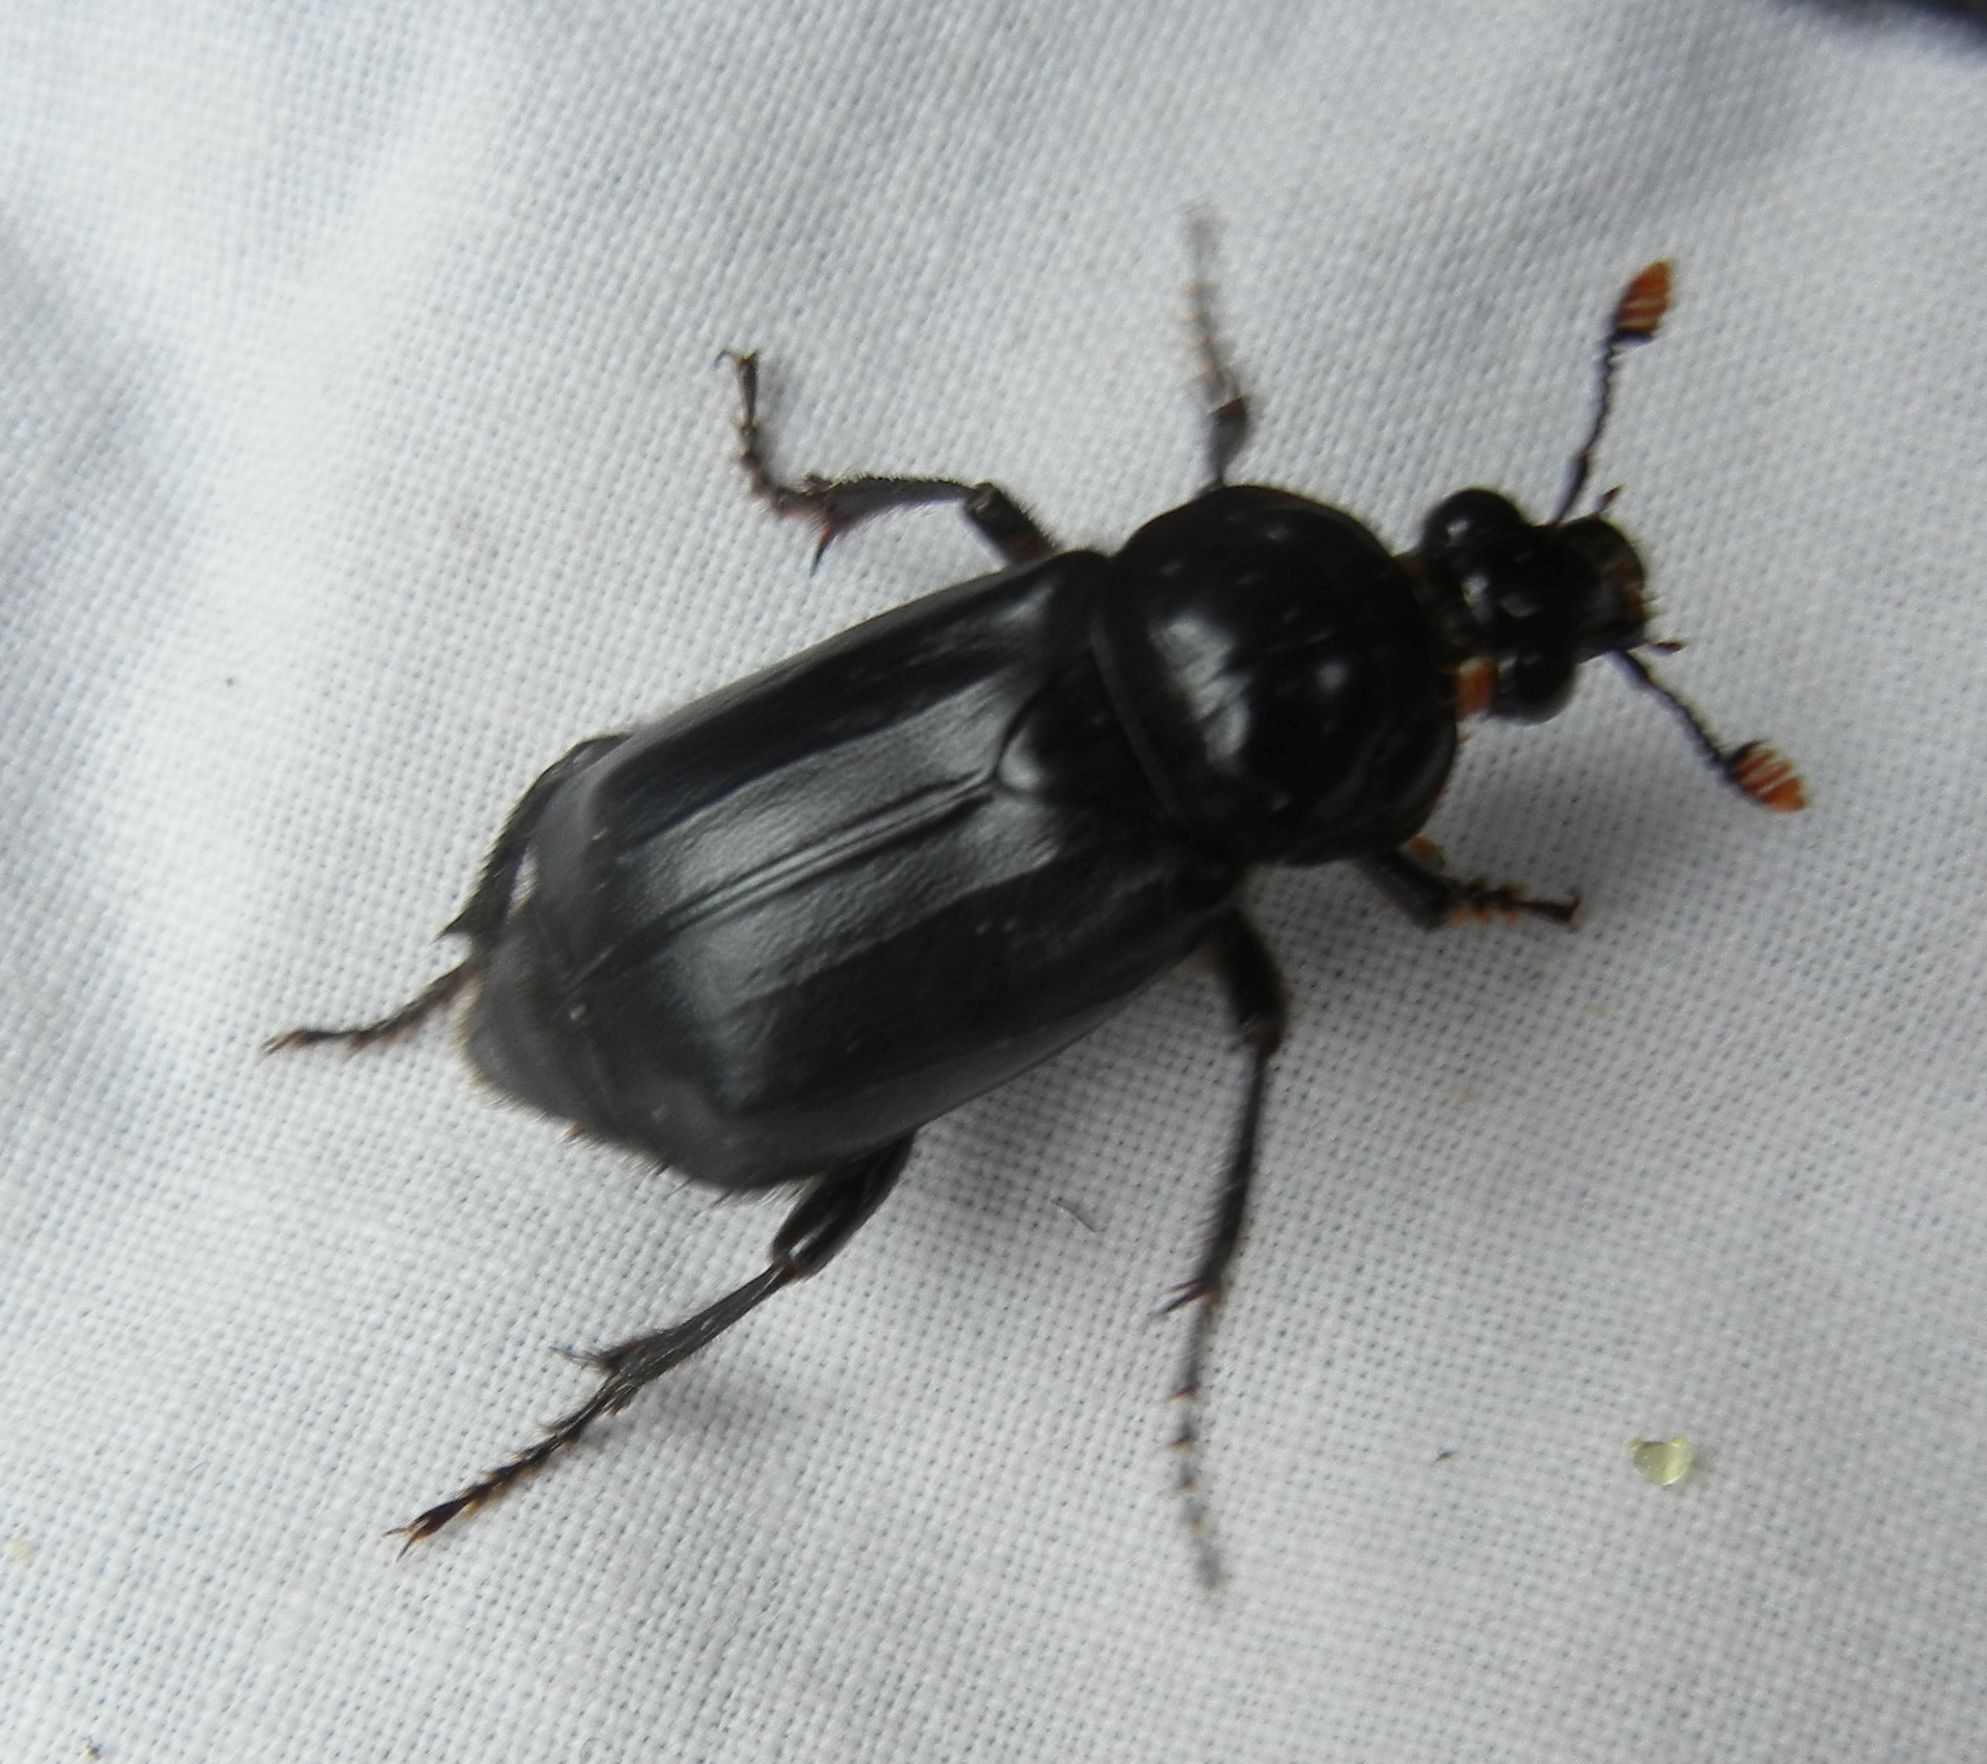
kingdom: Animalia
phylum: Arthropoda
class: Insecta
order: Coleoptera
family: Staphylinidae
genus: Nicrophorus
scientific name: Nicrophorus humator
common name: Black sexton beetle
